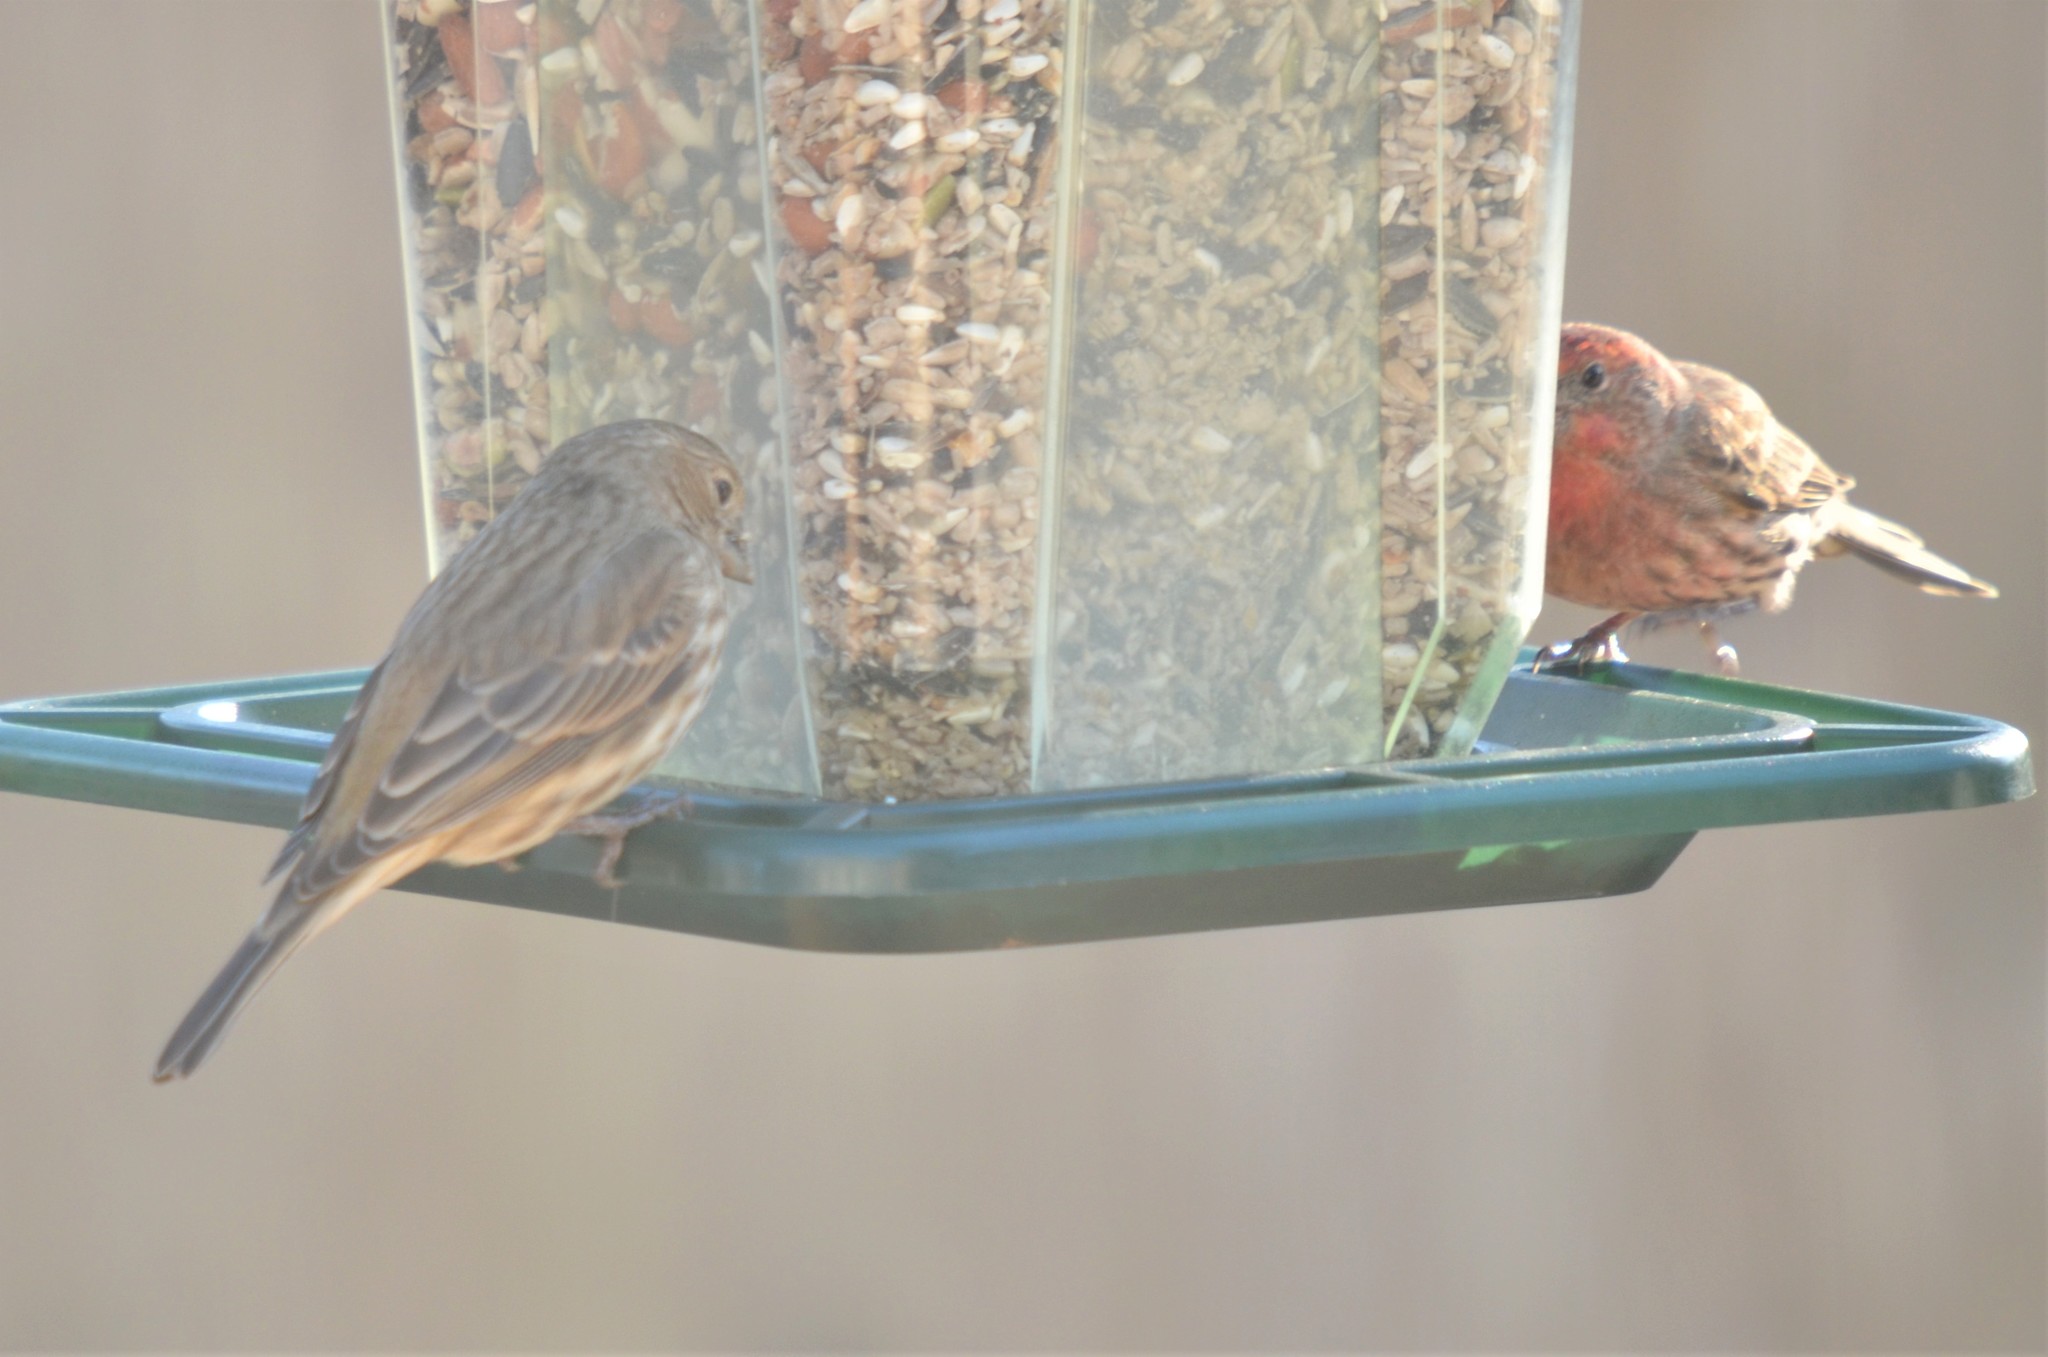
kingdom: Animalia
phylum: Chordata
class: Aves
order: Passeriformes
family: Fringillidae
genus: Haemorhous
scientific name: Haemorhous mexicanus
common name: House finch
